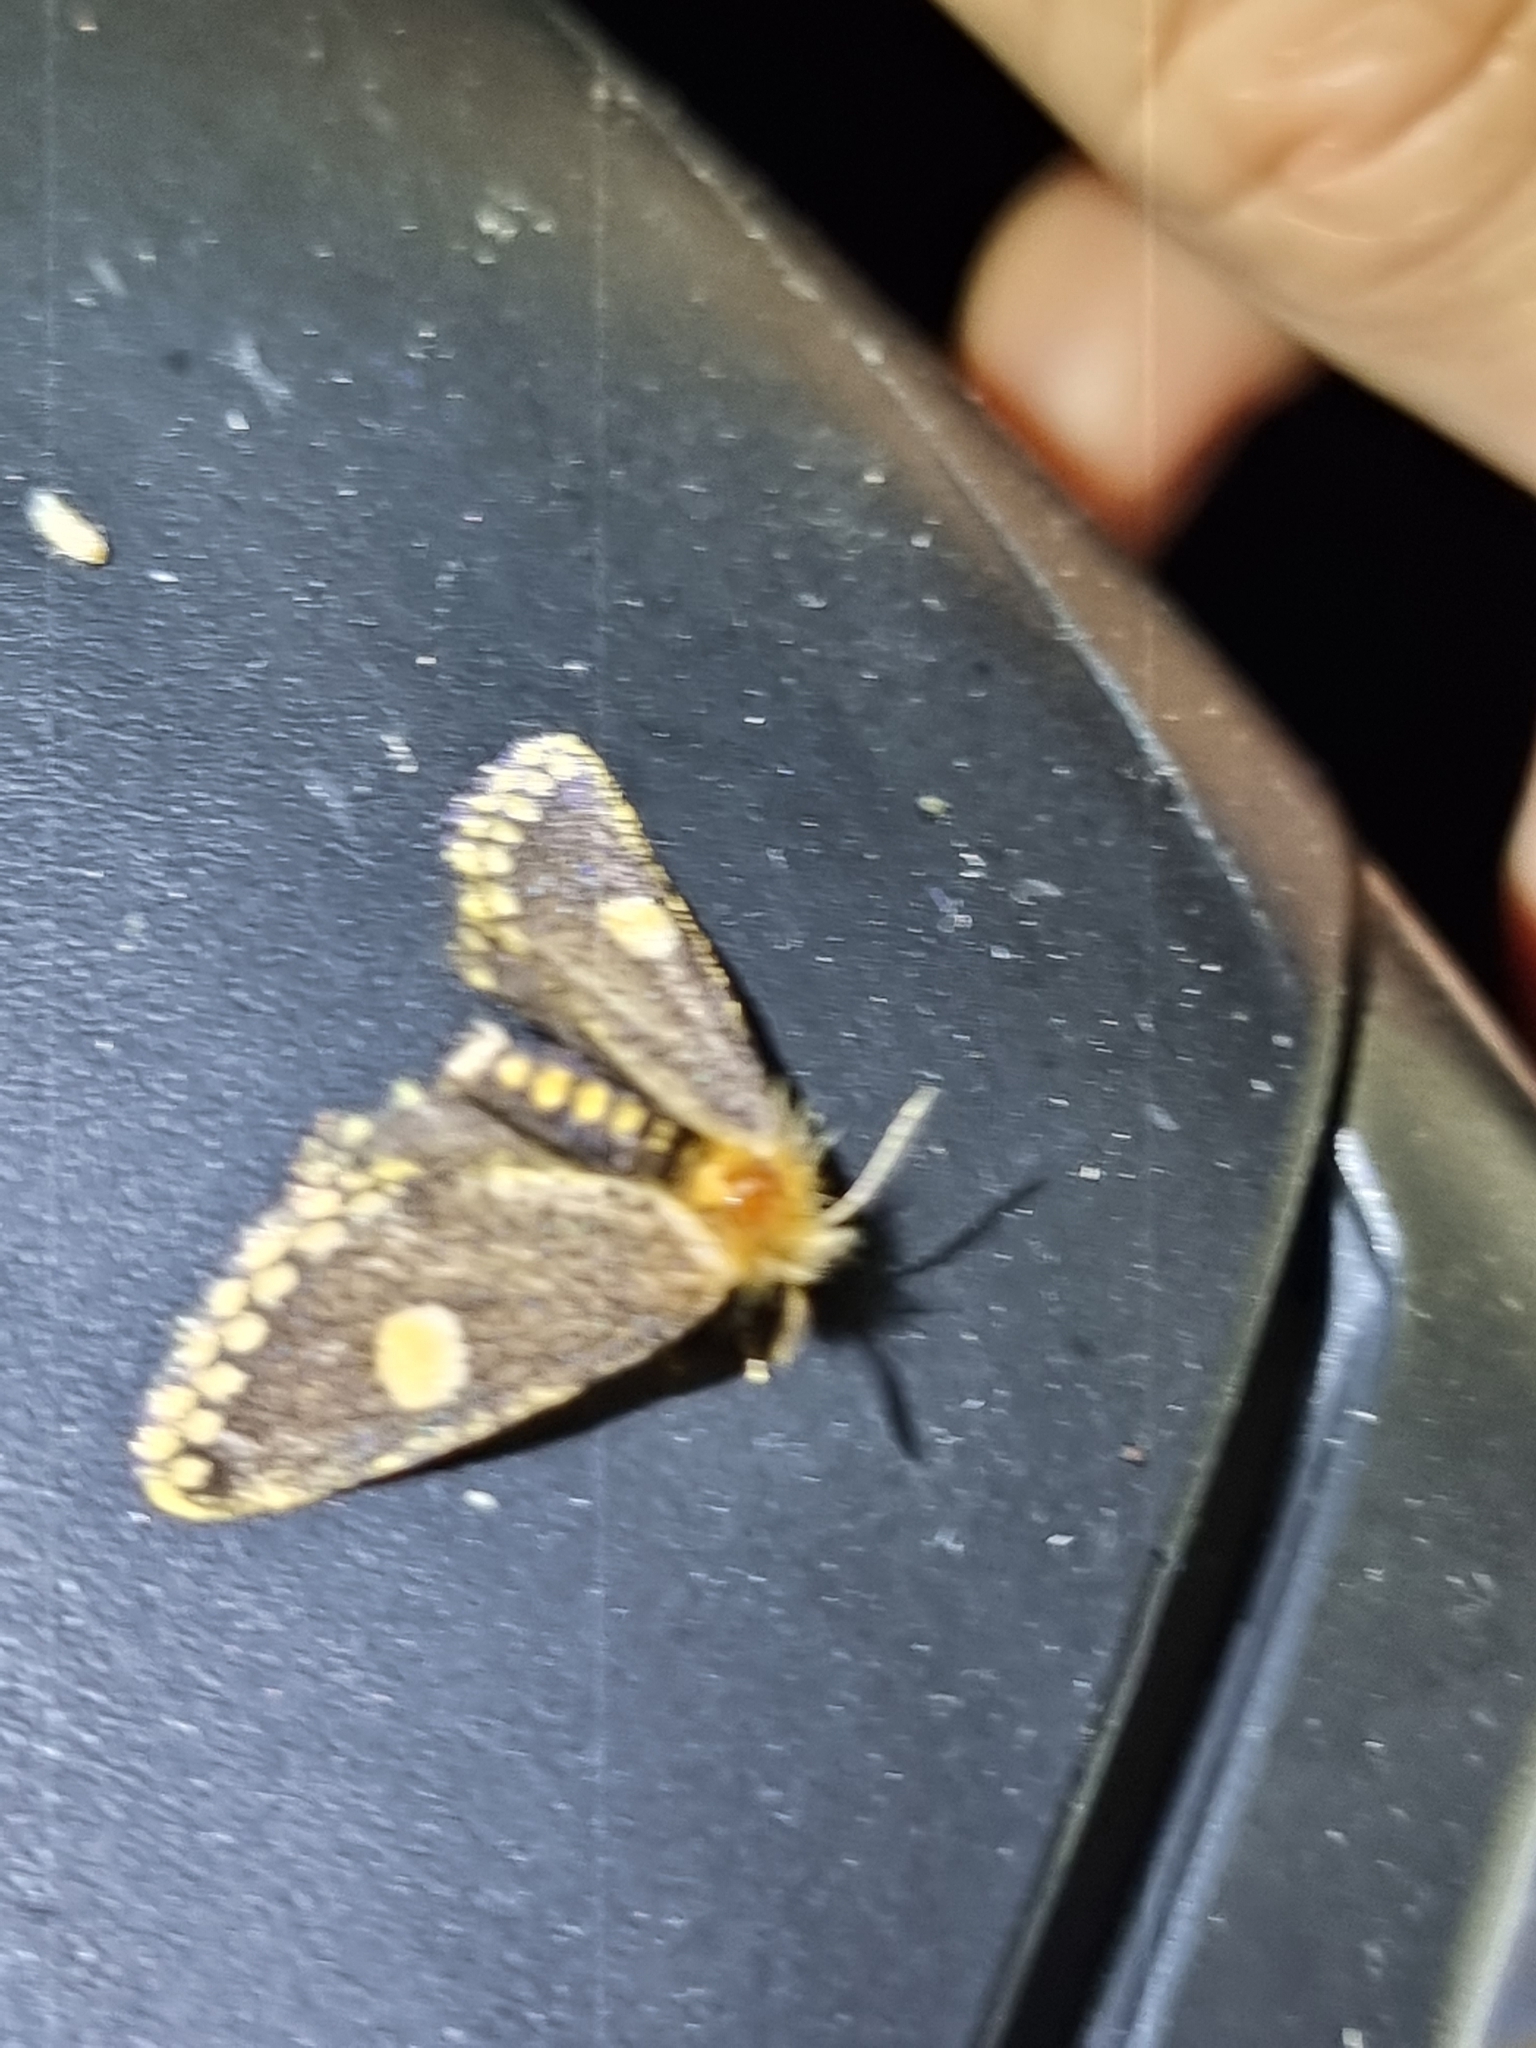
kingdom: Animalia
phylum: Arthropoda
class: Insecta
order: Lepidoptera
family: Notodontidae
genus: Epicoma
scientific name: Epicoma protrahens
